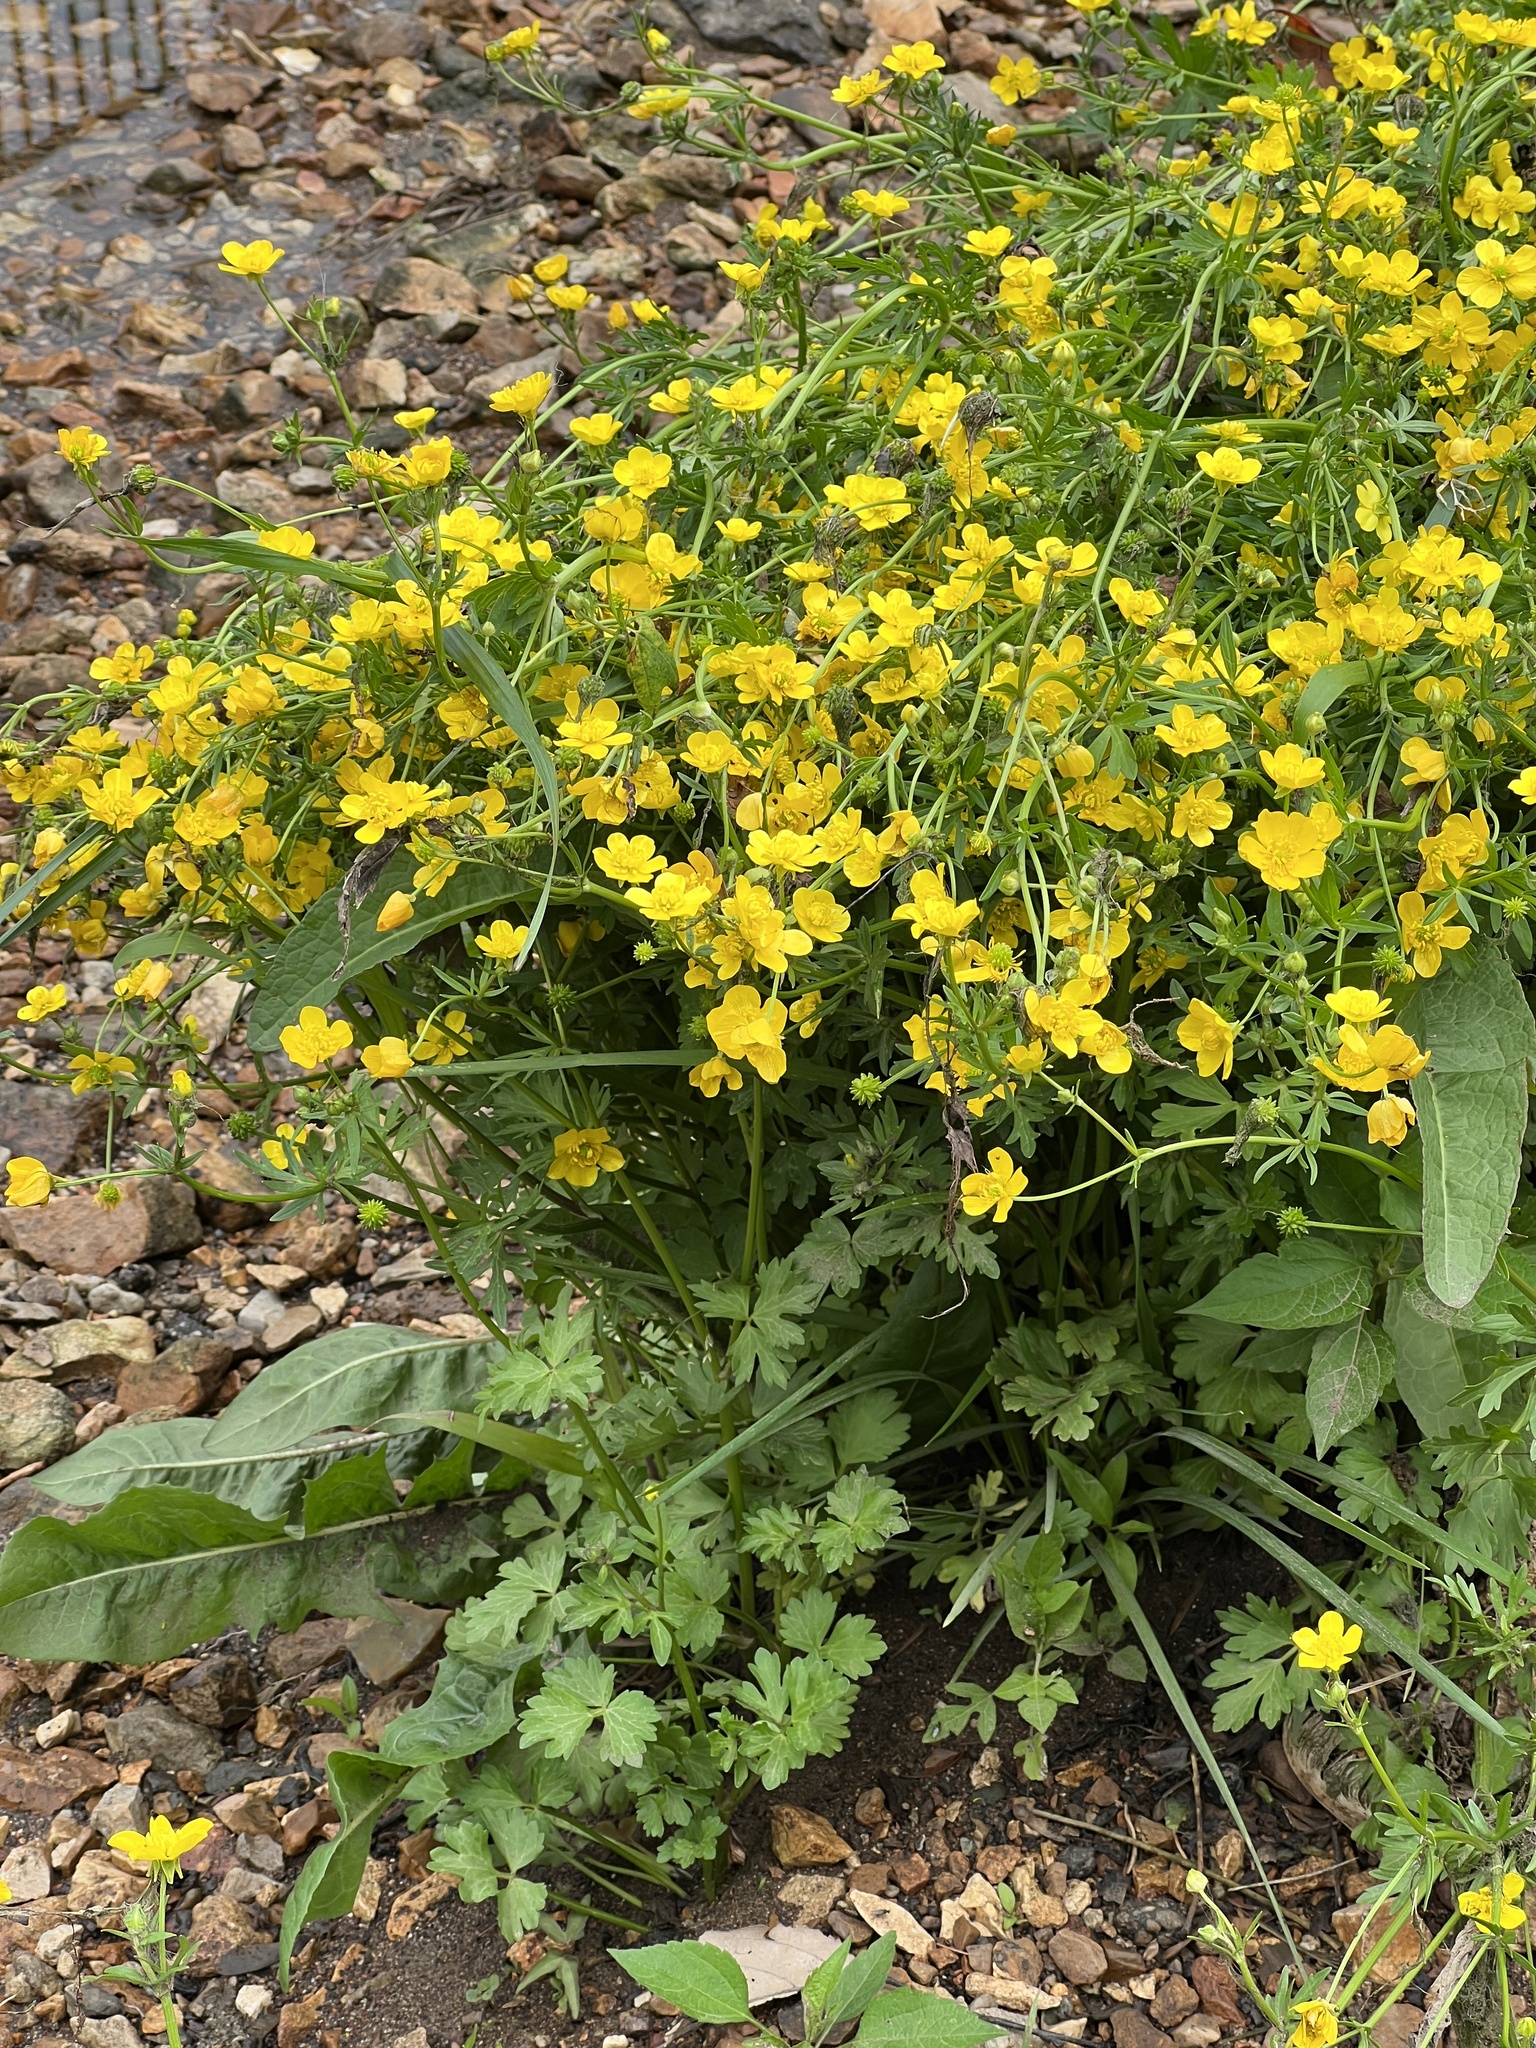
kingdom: Plantae
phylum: Tracheophyta
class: Magnoliopsida
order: Ranunculales
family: Ranunculaceae
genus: Ranunculus
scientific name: Ranunculus sardous
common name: Hairy buttercup
